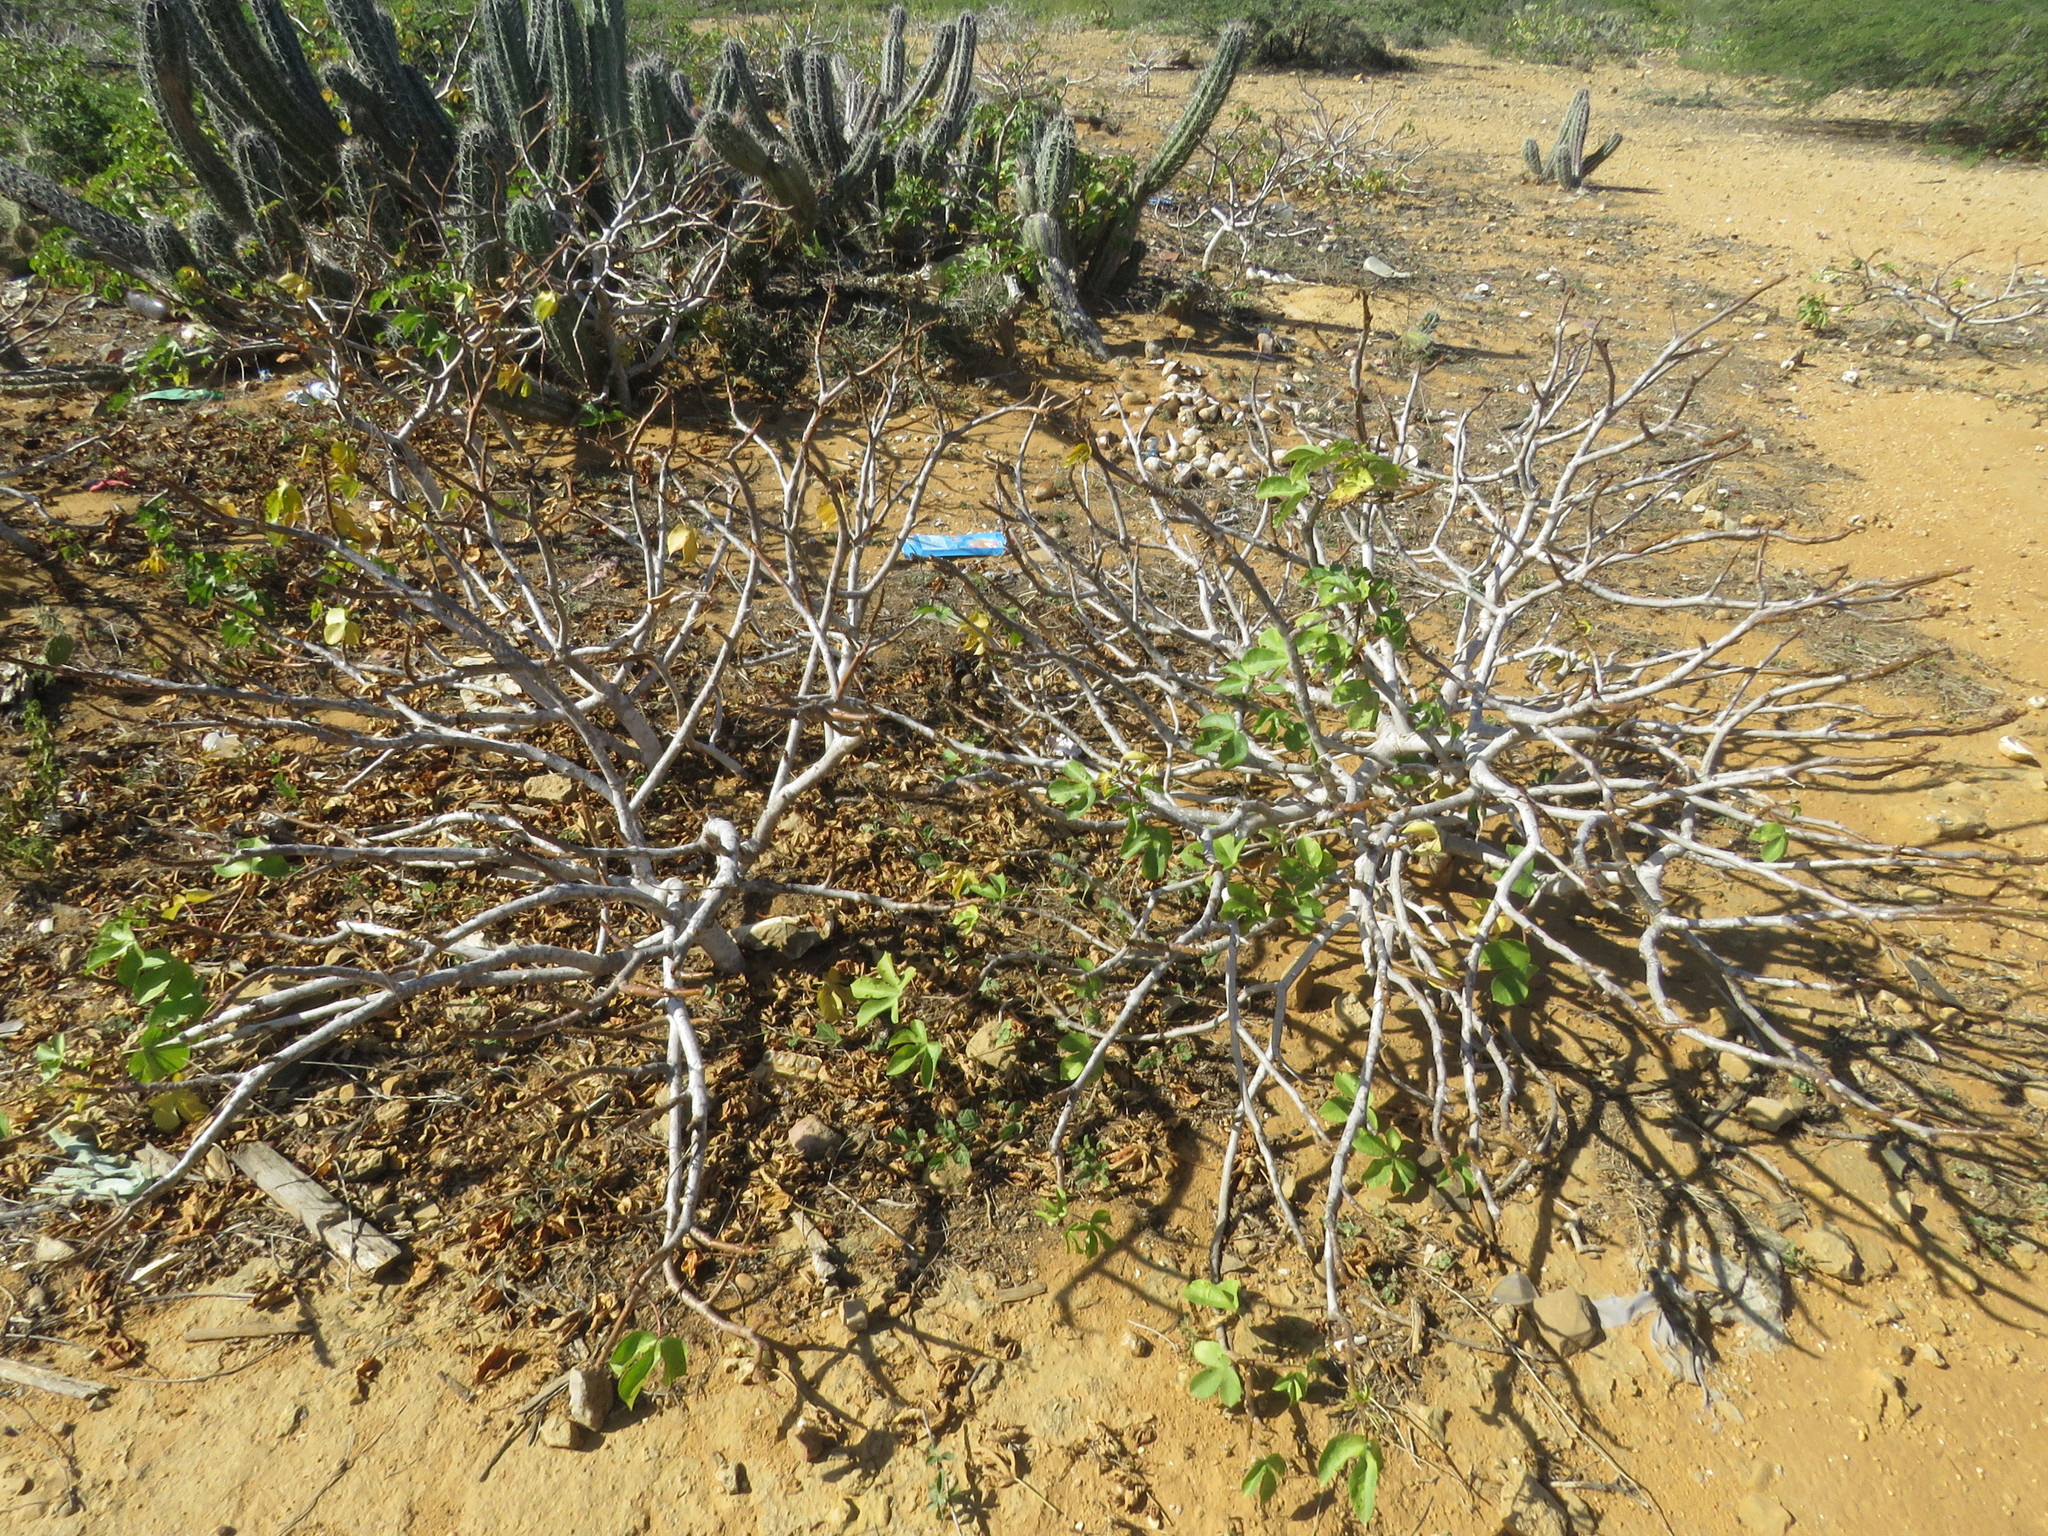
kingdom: Plantae
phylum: Tracheophyta
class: Magnoliopsida
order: Malpighiales
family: Euphorbiaceae
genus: Jatropha
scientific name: Jatropha gossypiifolia
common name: Bellyache bush
